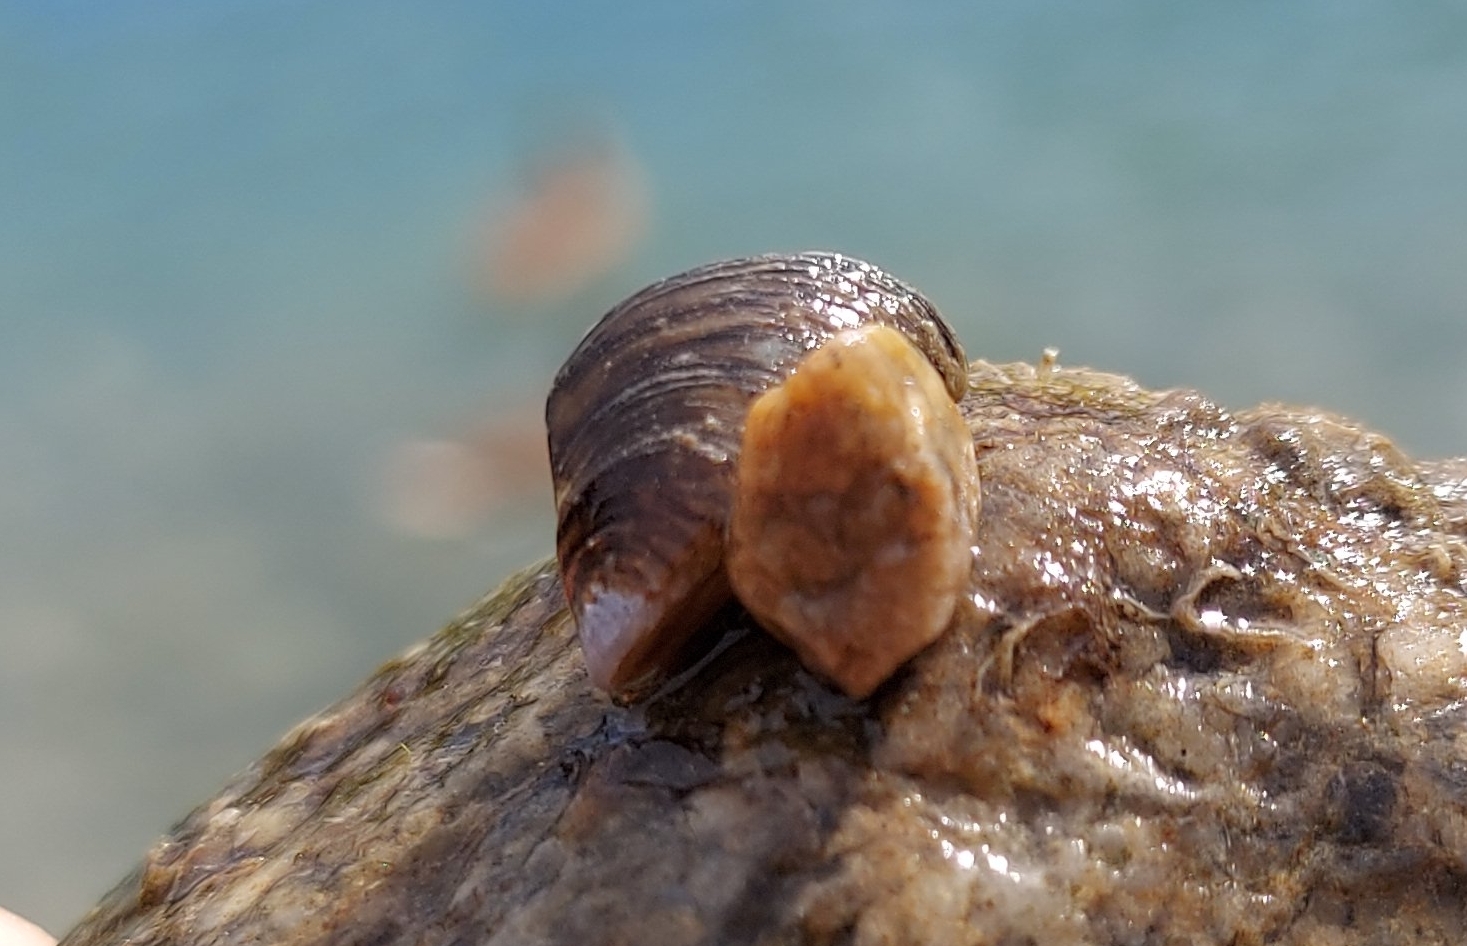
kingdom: Animalia
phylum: Mollusca
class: Bivalvia
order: Myida
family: Dreissenidae
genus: Dreissena
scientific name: Dreissena polymorpha
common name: Zebra mussel
